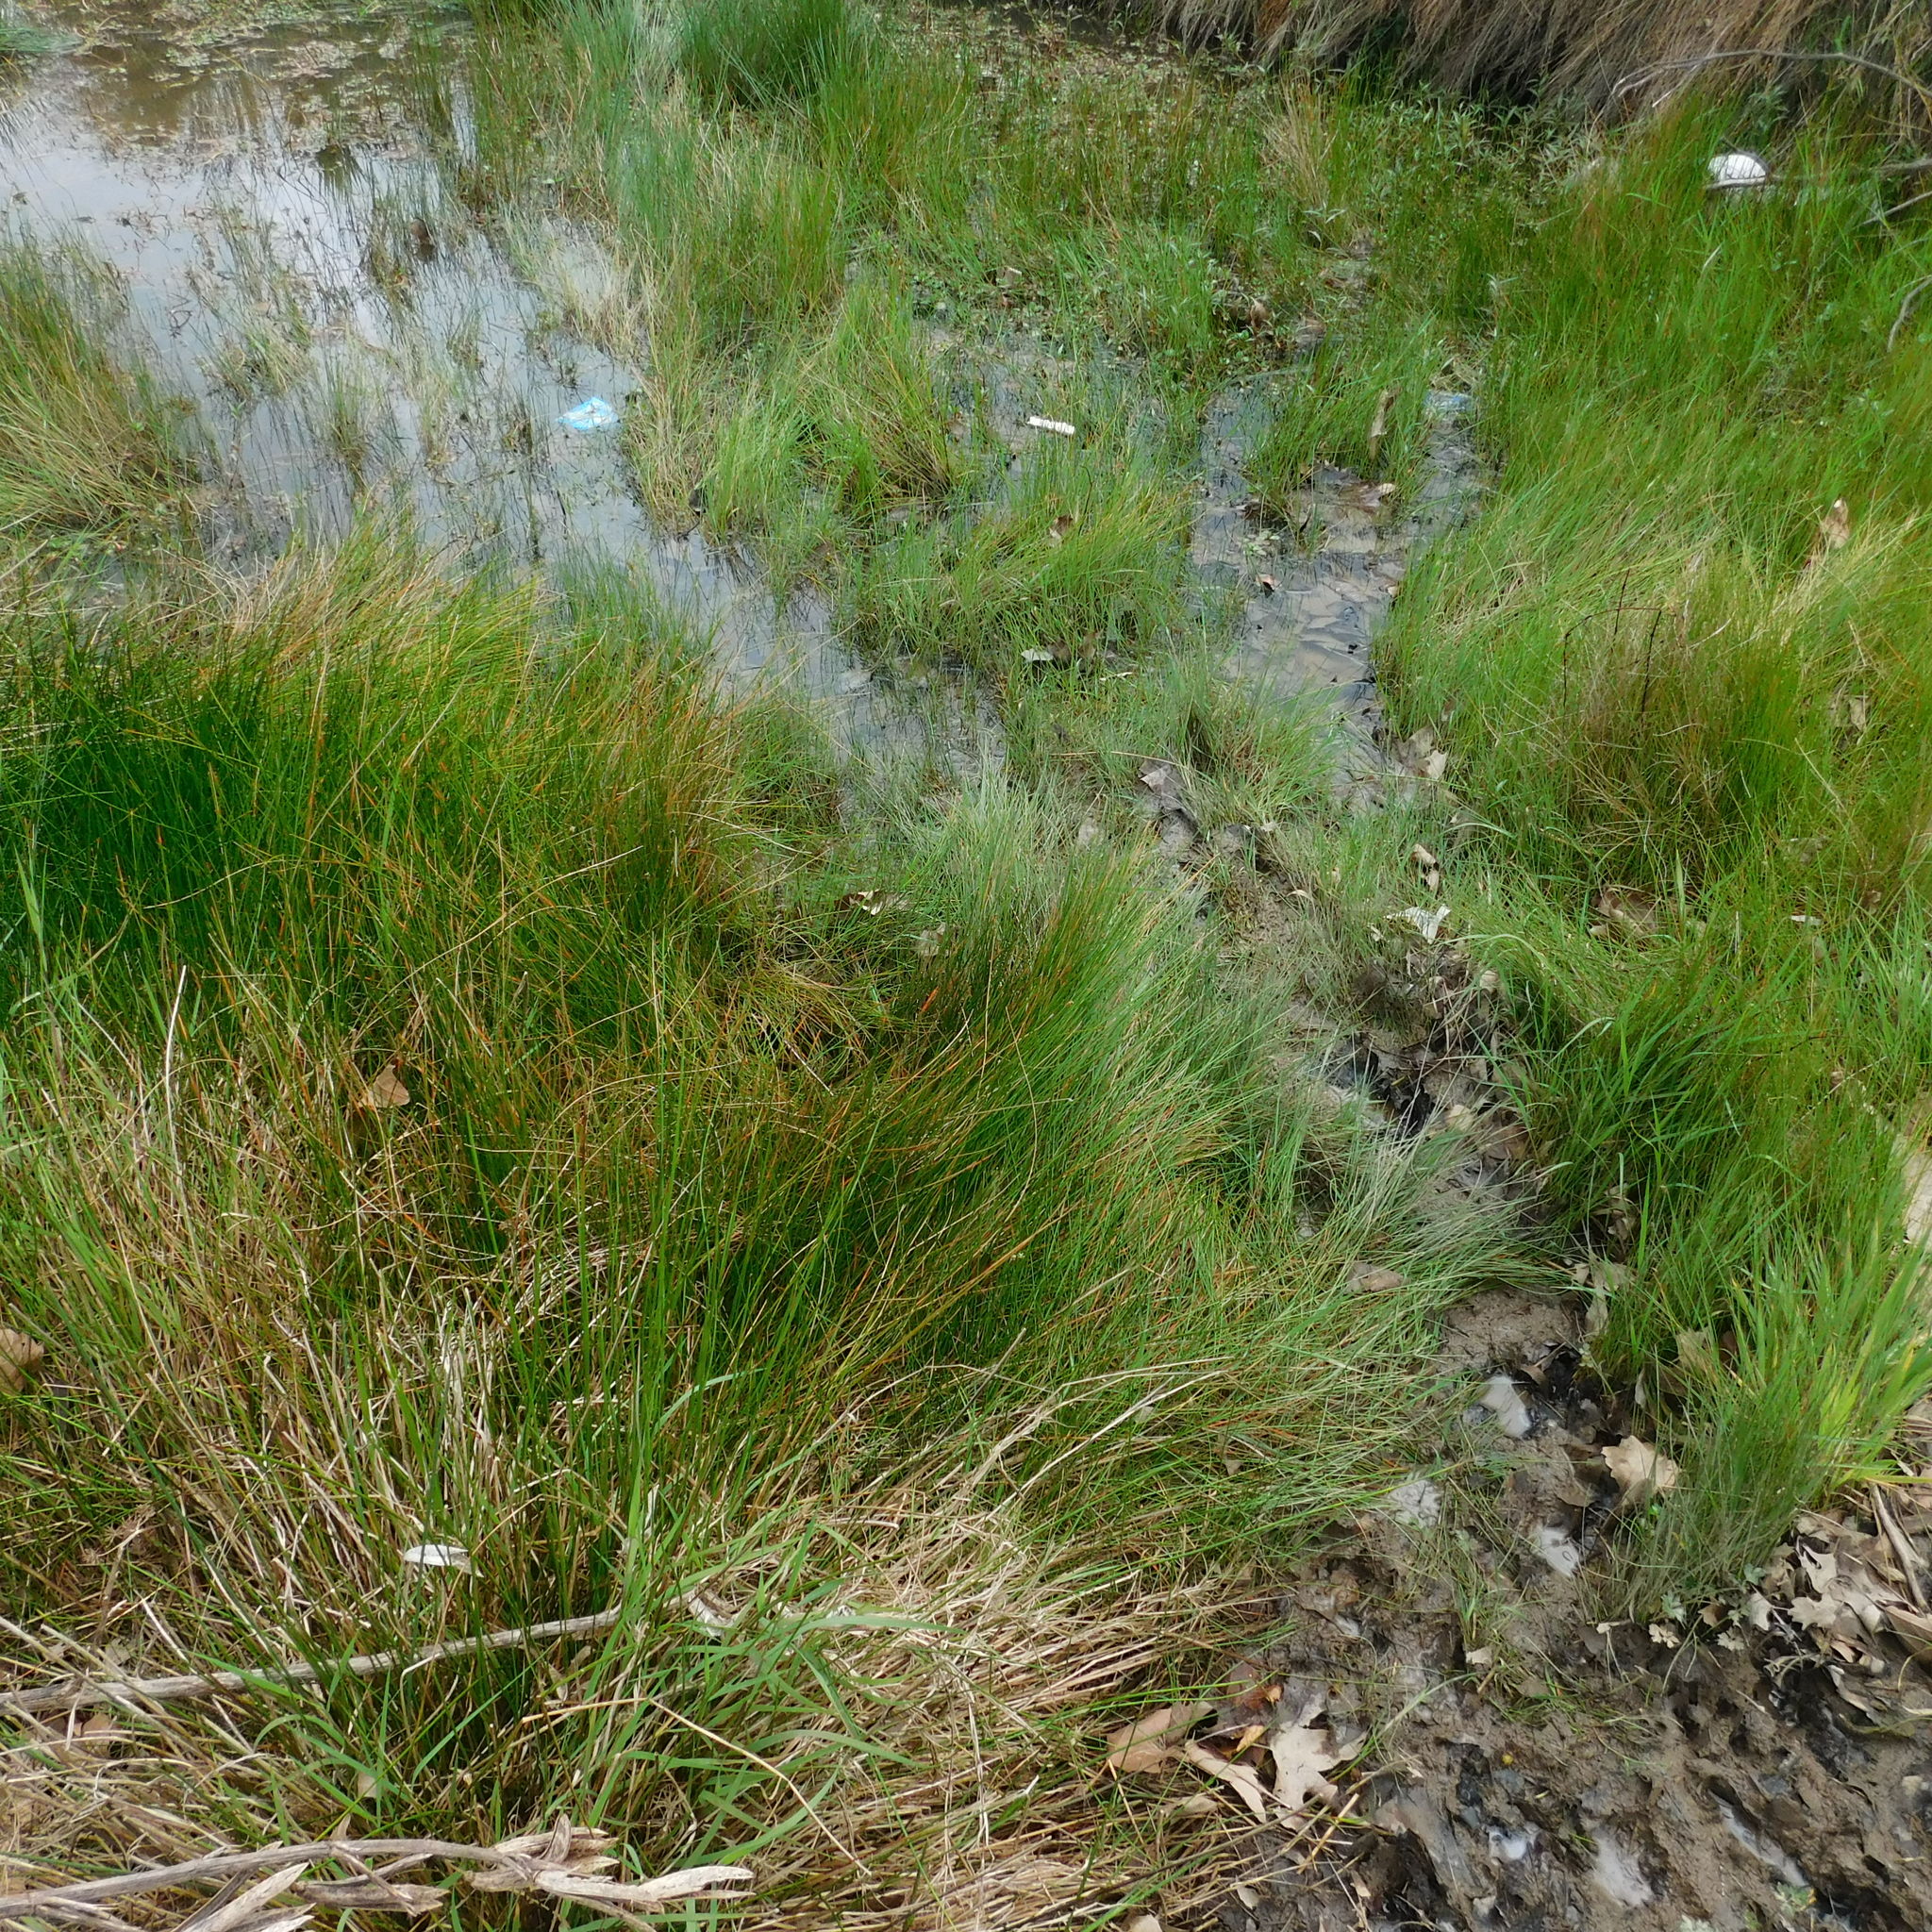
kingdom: Plantae
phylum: Tracheophyta
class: Liliopsida
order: Poales
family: Cyperaceae
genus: Eleocharis
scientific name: Eleocharis acuta
